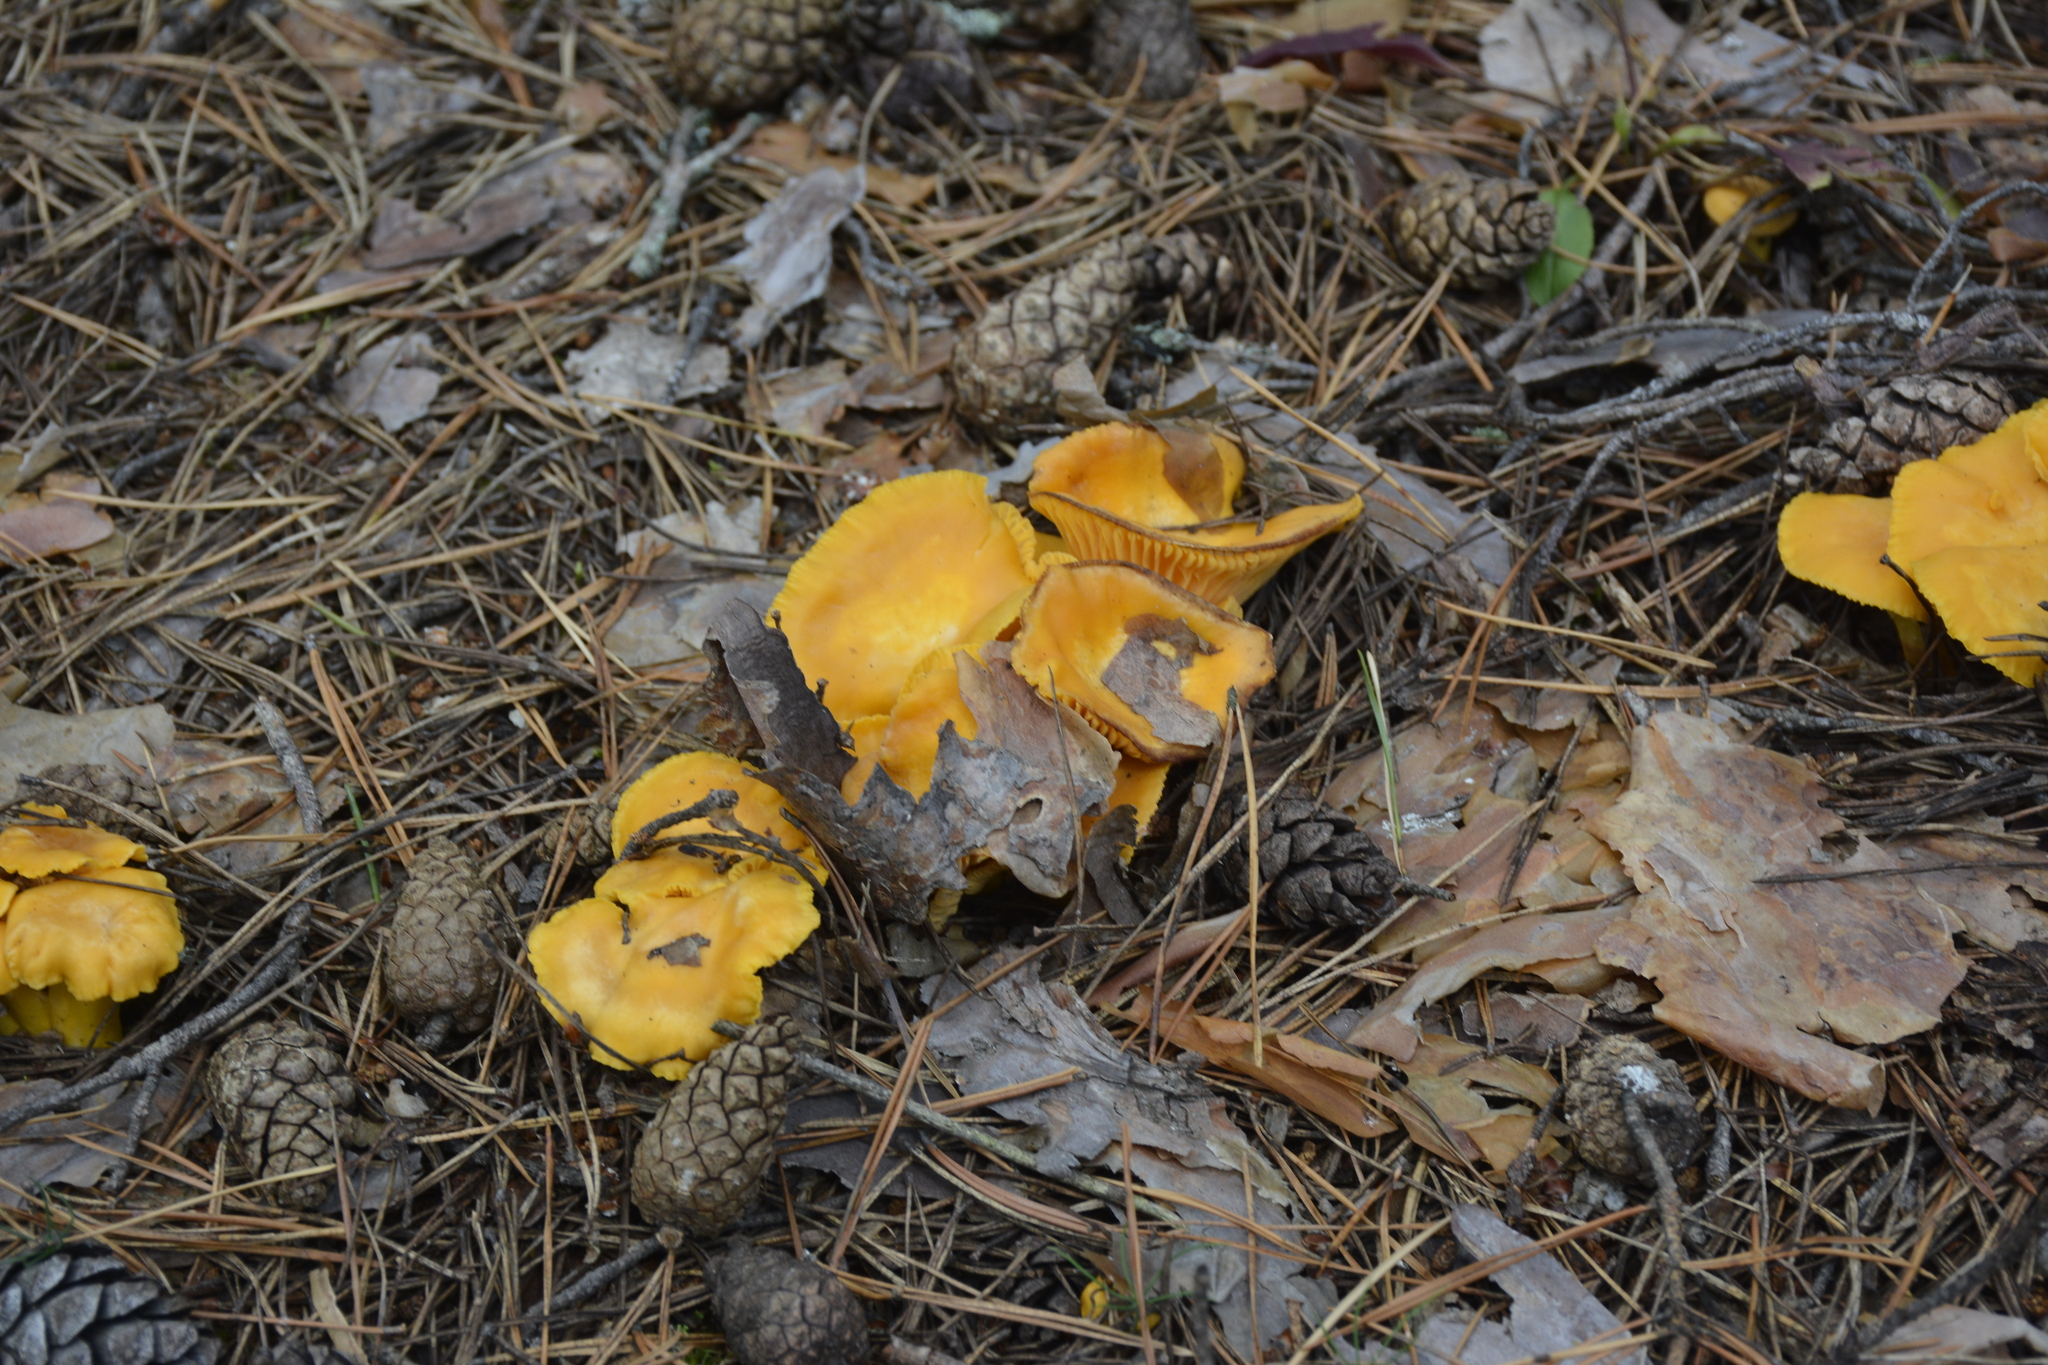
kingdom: Fungi
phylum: Basidiomycota
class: Agaricomycetes
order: Cantharellales
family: Hydnaceae
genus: Cantharellus
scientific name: Cantharellus cibarius
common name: Chanterelle
